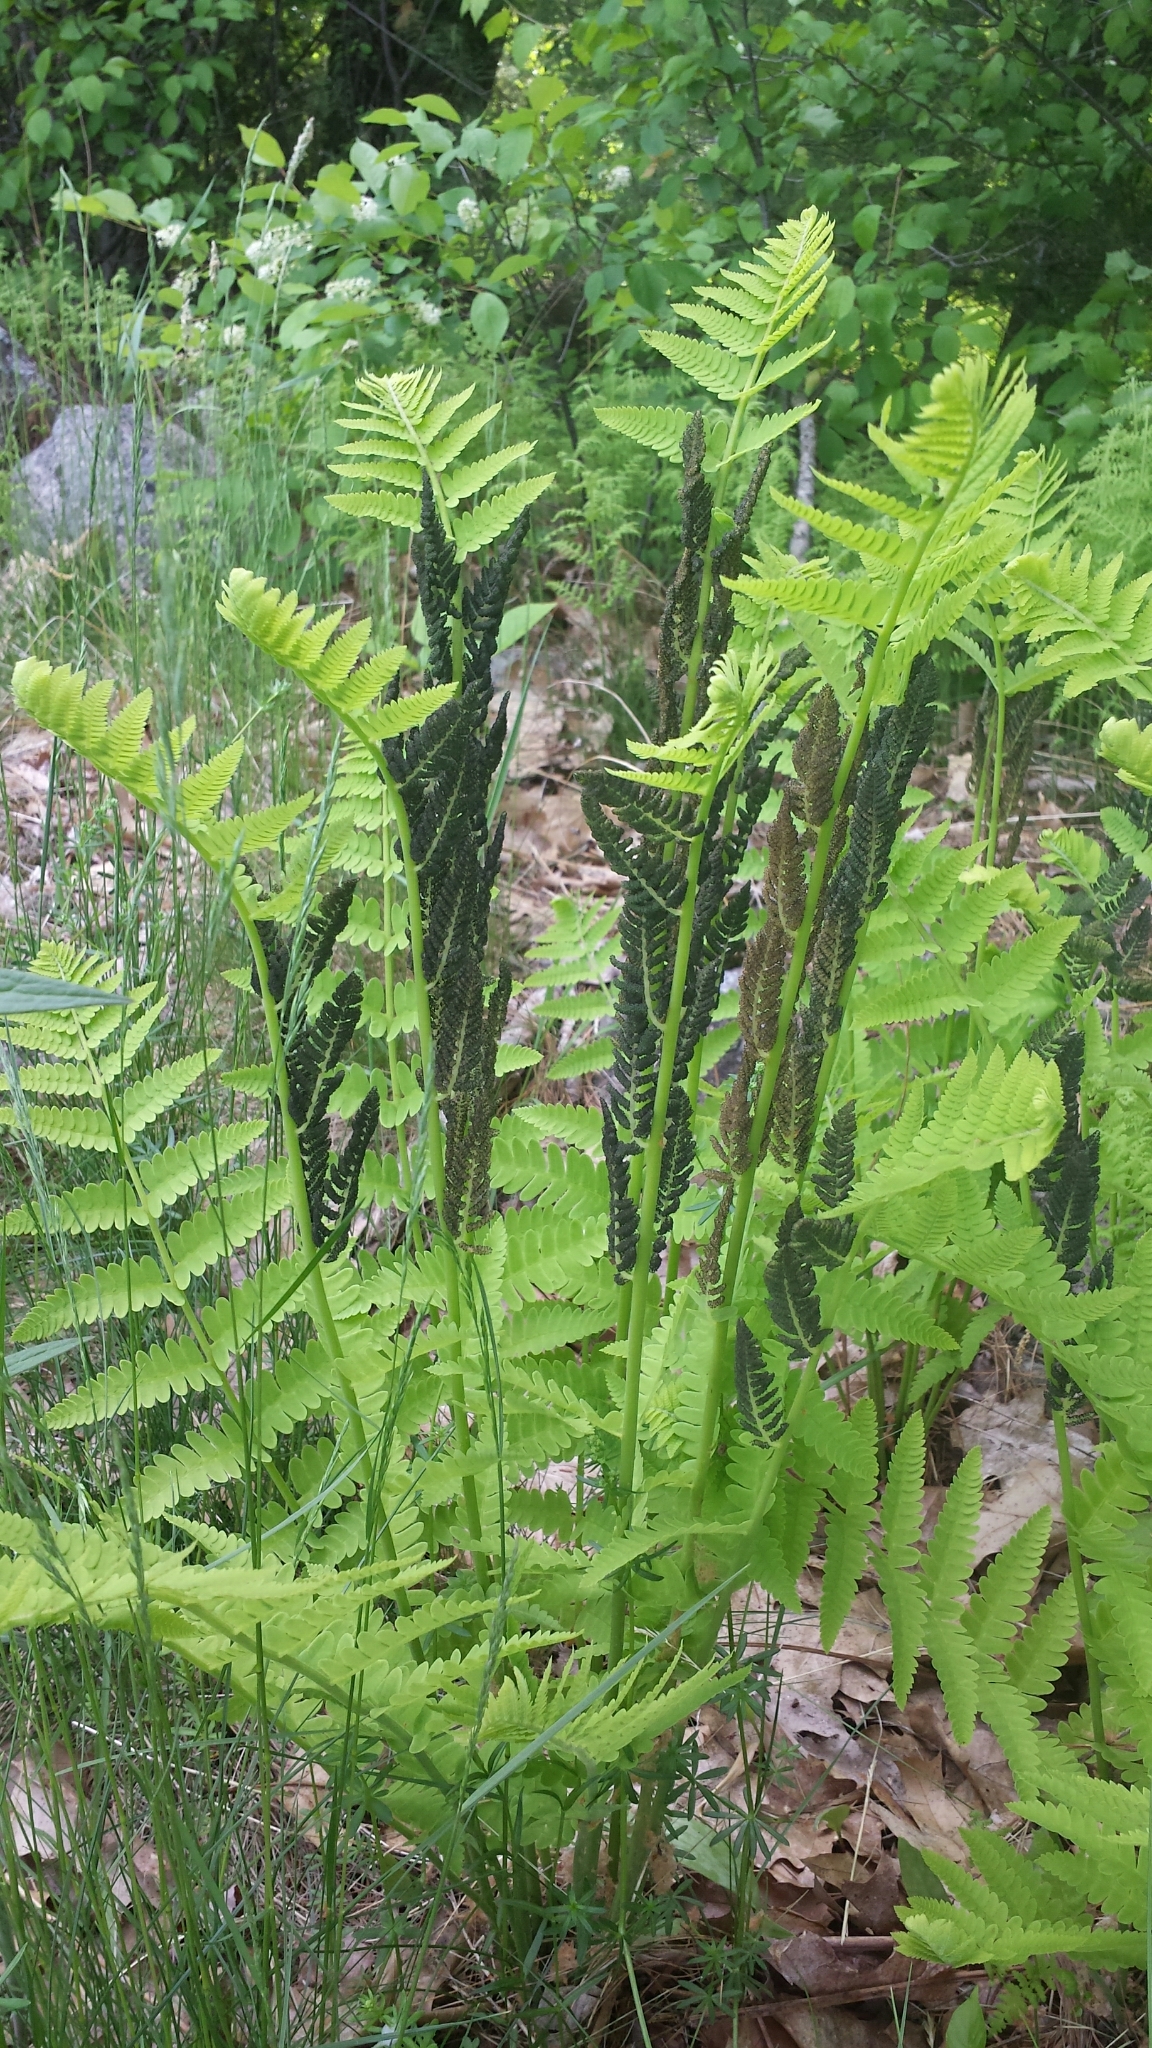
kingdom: Plantae
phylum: Tracheophyta
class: Polypodiopsida
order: Osmundales
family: Osmundaceae
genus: Claytosmunda
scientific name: Claytosmunda claytoniana
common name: Clayton's fern
